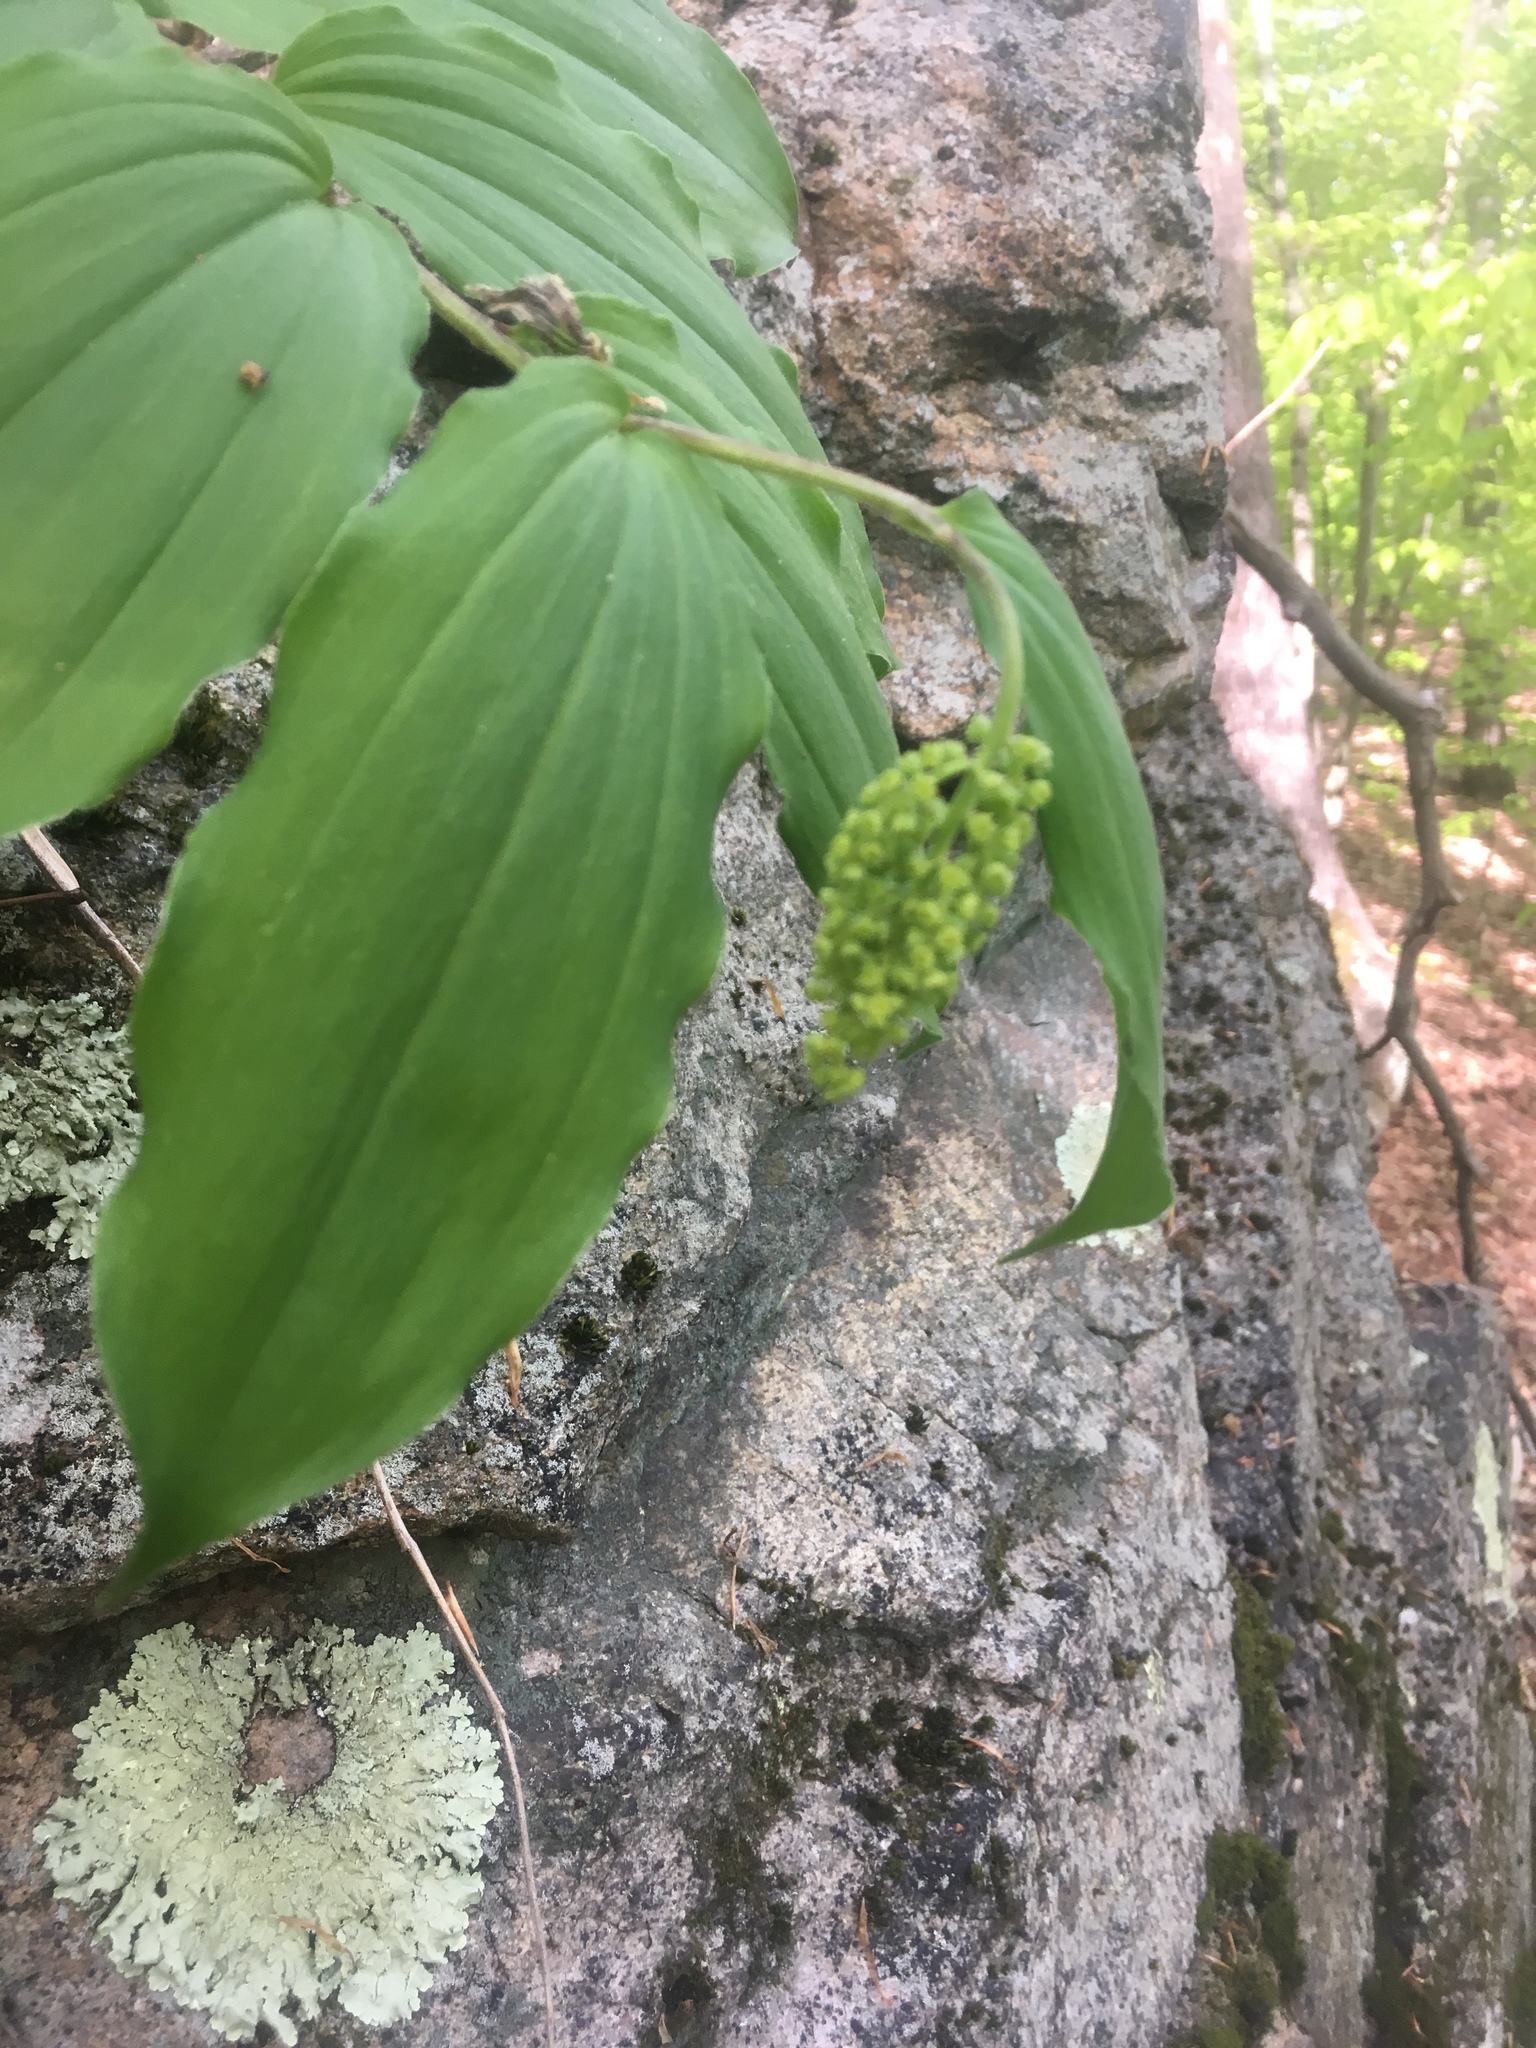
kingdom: Plantae
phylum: Tracheophyta
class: Liliopsida
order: Asparagales
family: Asparagaceae
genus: Maianthemum
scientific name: Maianthemum racemosum
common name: False spikenard
